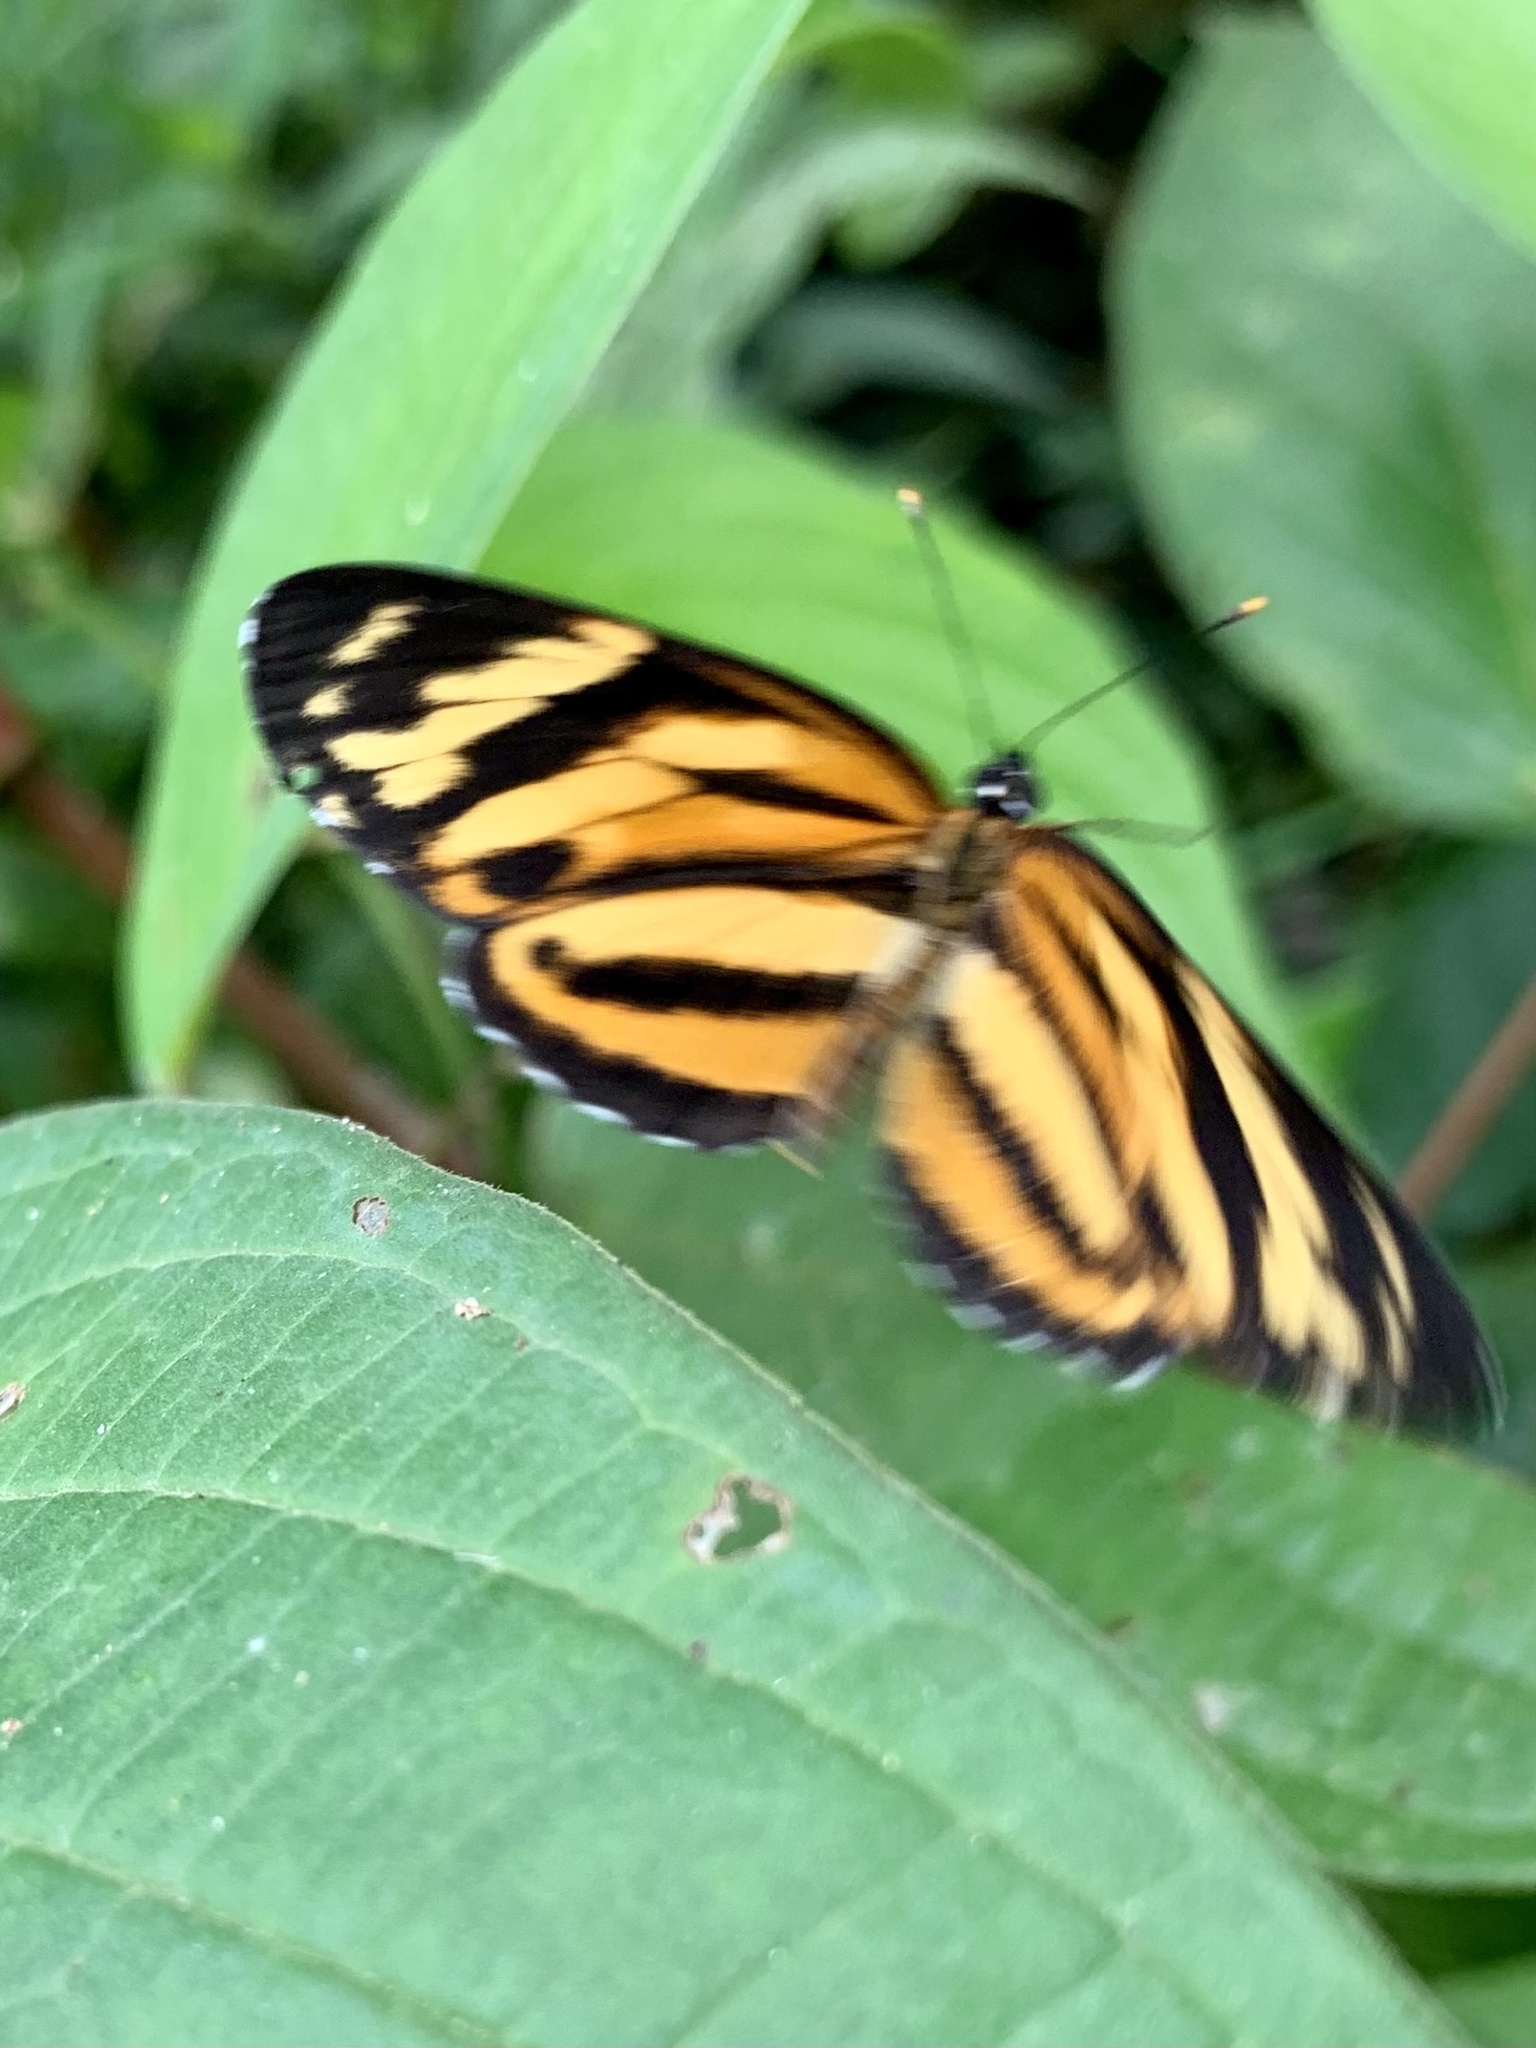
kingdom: Animalia
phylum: Arthropoda
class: Insecta
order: Lepidoptera
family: Nymphalidae
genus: Eresia
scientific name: Eresia eunice
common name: Tiger crescent
